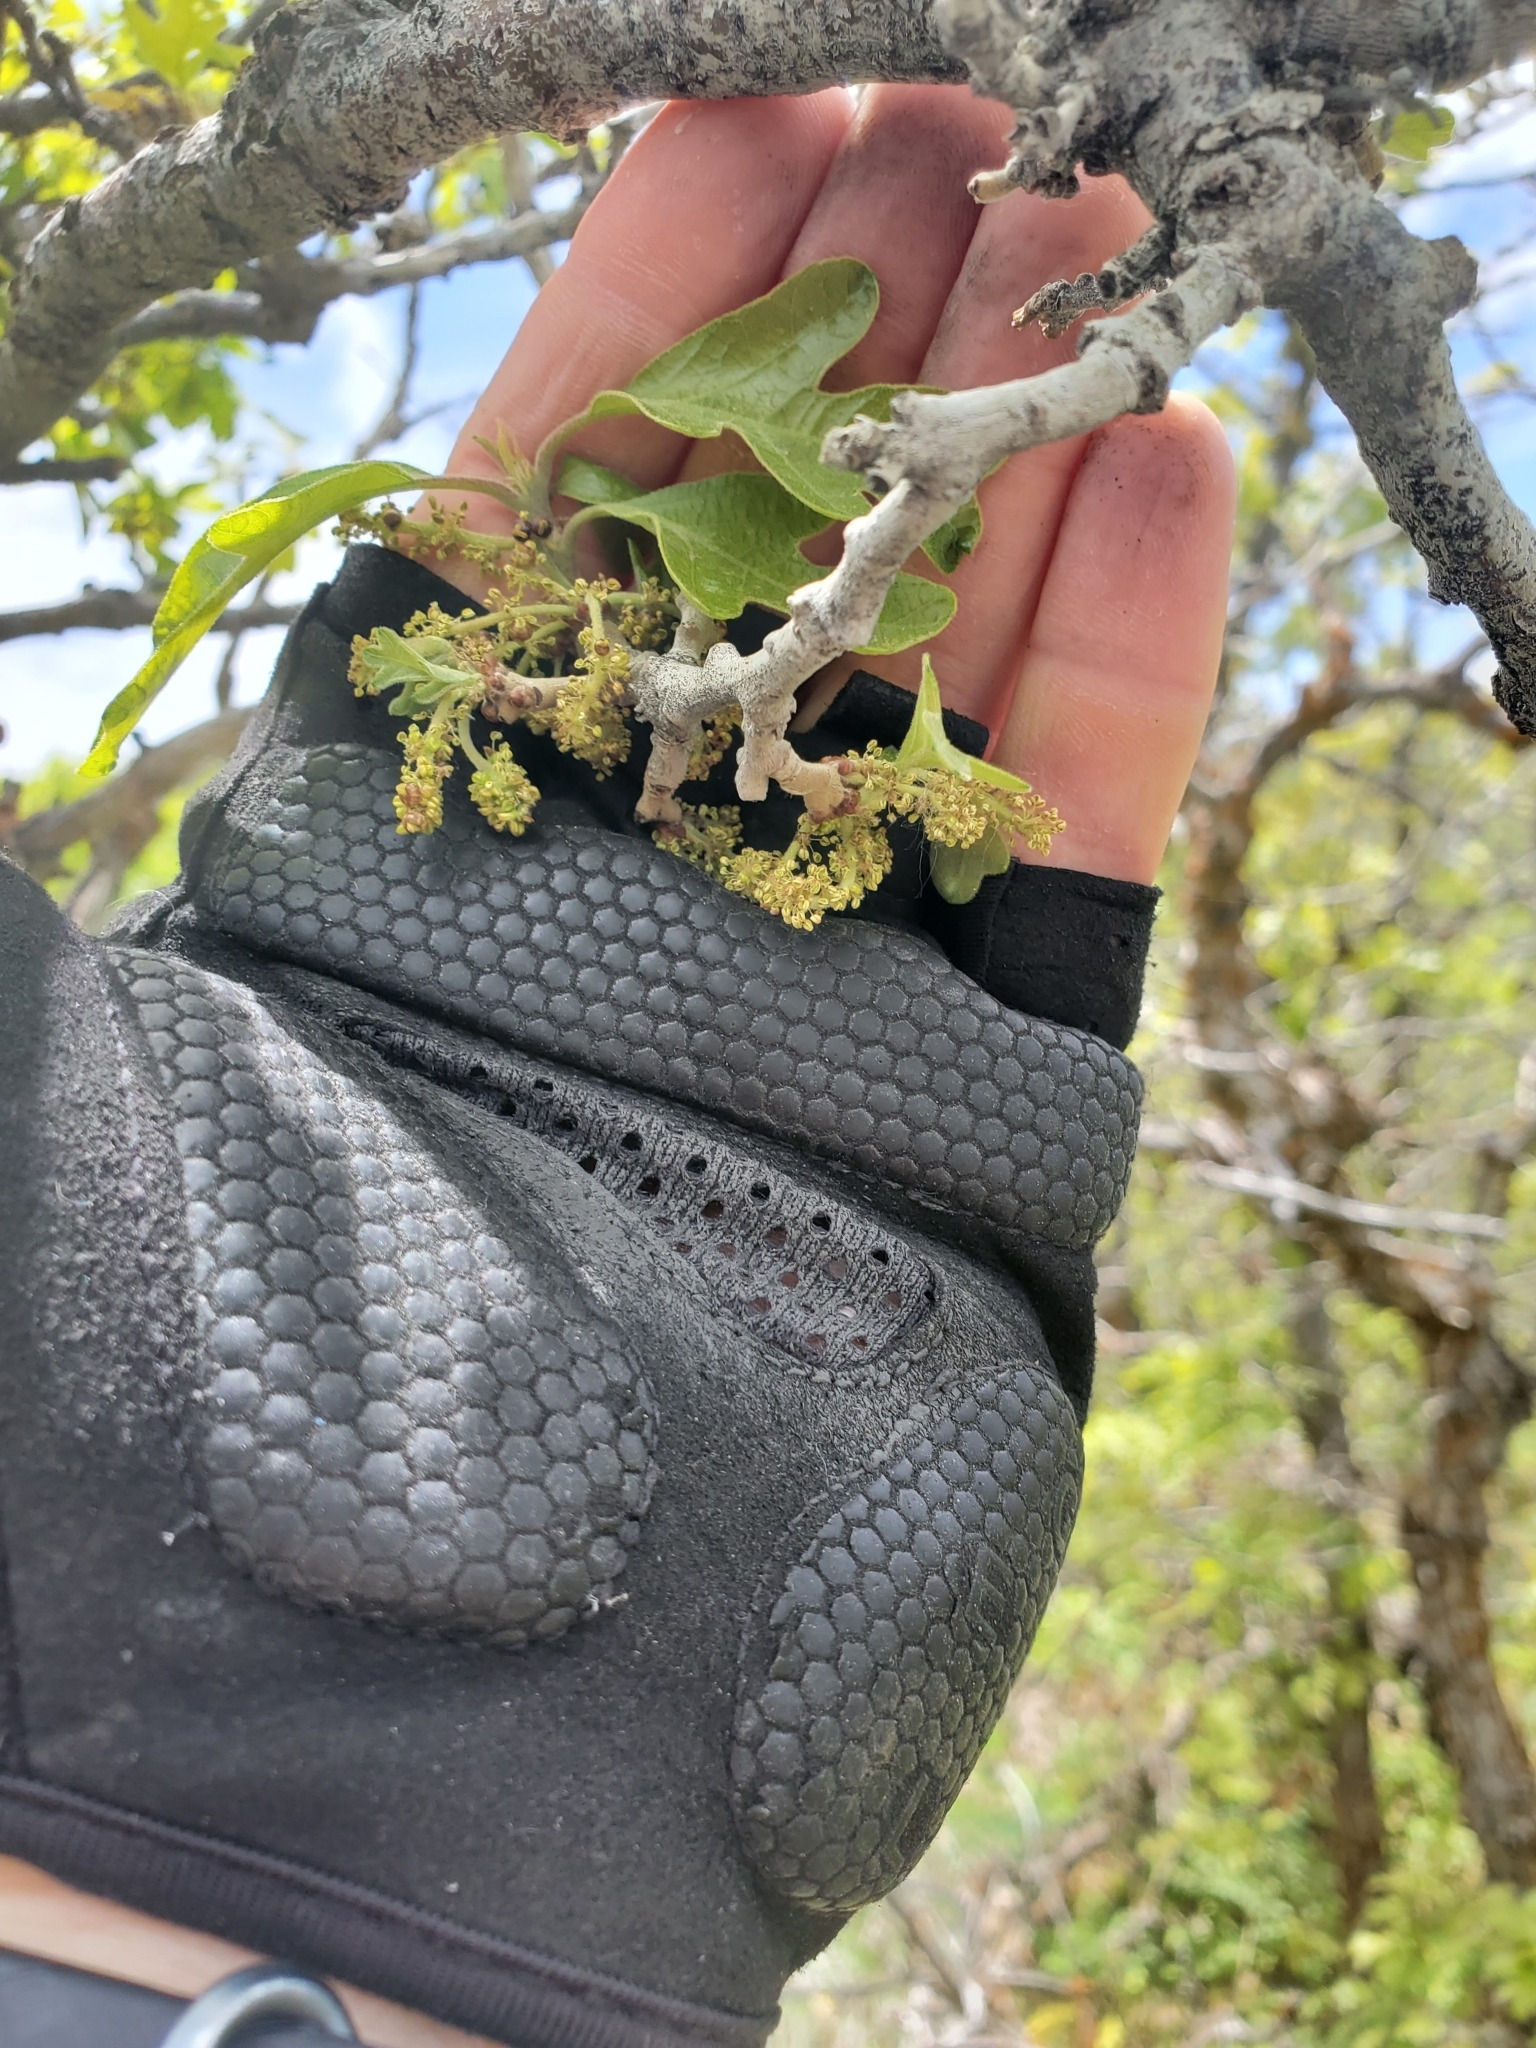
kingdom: Plantae
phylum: Tracheophyta
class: Magnoliopsida
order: Fagales
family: Fagaceae
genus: Quercus
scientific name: Quercus gambelii
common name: Gambel oak
